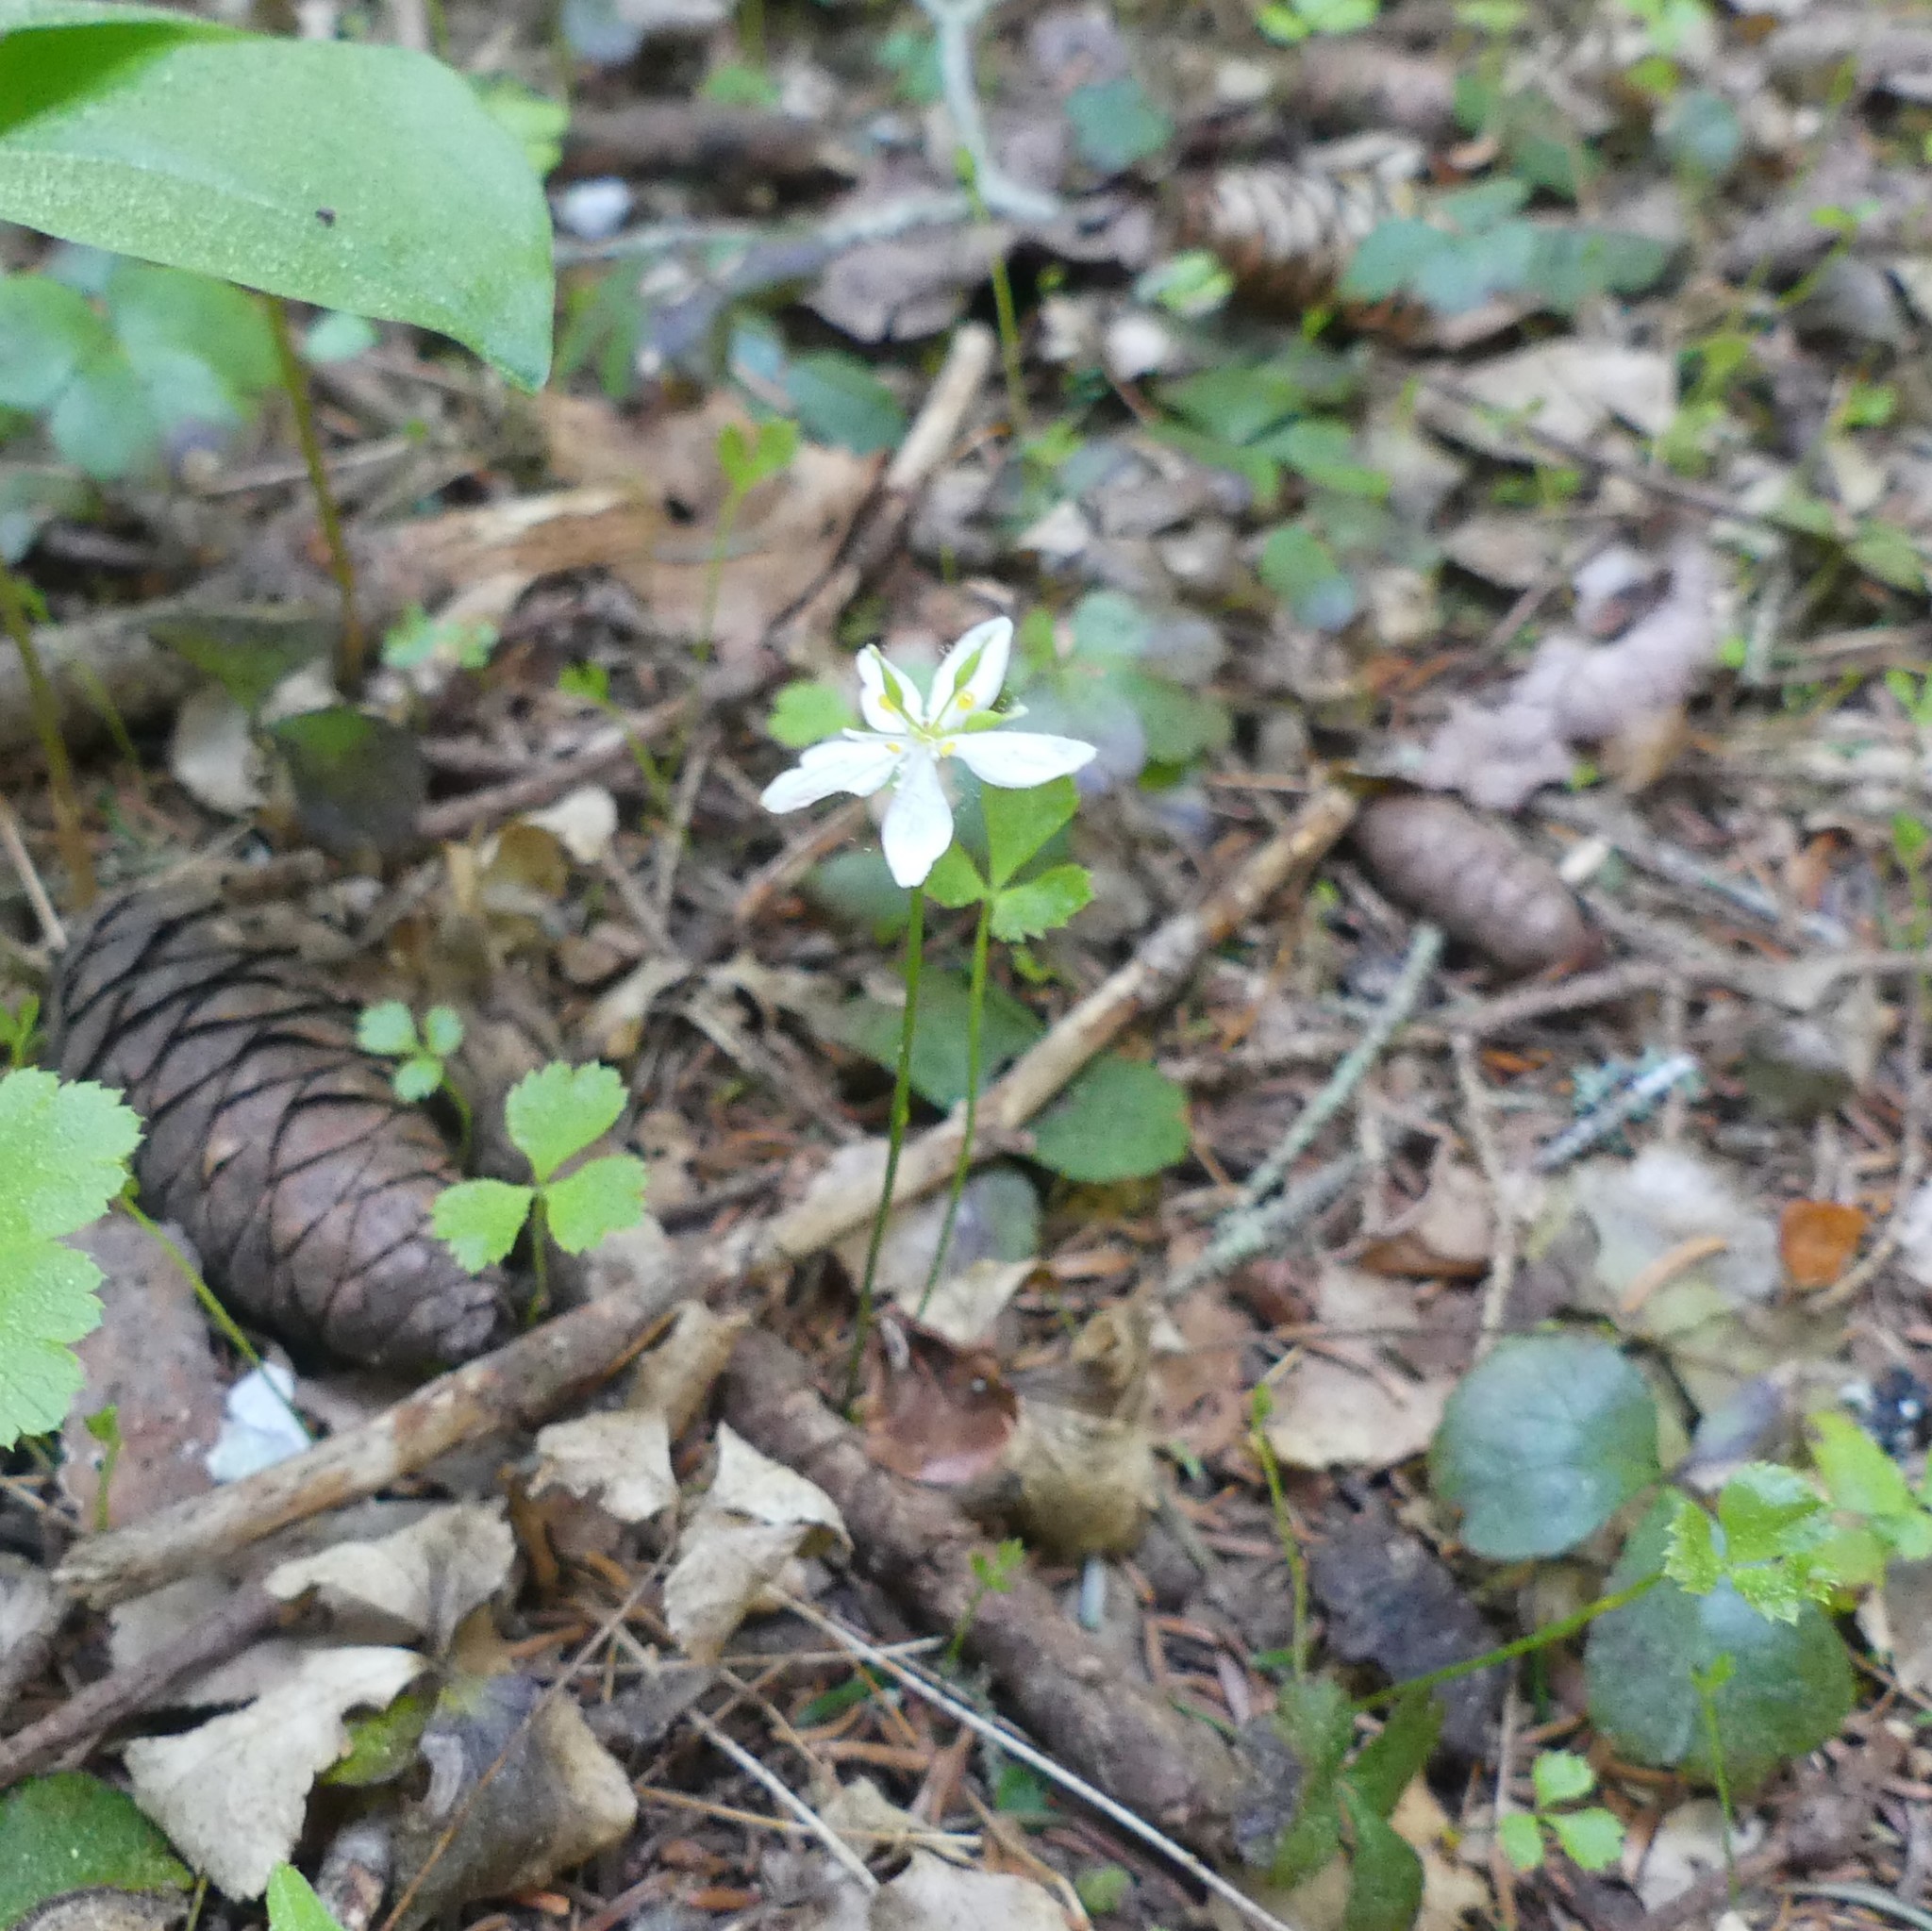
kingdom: Plantae
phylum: Tracheophyta
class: Magnoliopsida
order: Ranunculales
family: Ranunculaceae
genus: Coptis
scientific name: Coptis trifolia
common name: Canker-root
